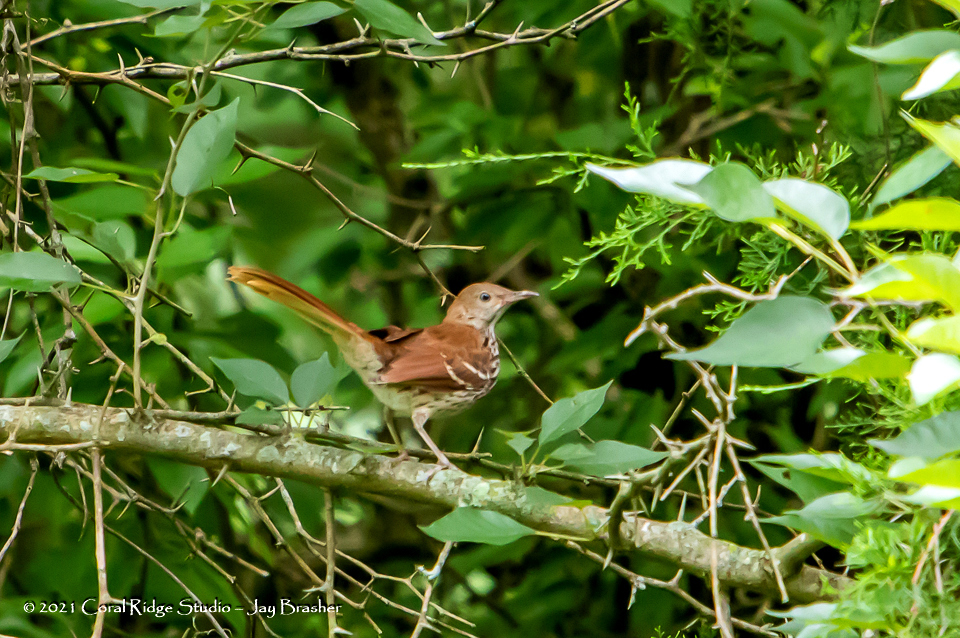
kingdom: Animalia
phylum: Chordata
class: Aves
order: Passeriformes
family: Mimidae
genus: Toxostoma
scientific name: Toxostoma rufum
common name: Brown thrasher
